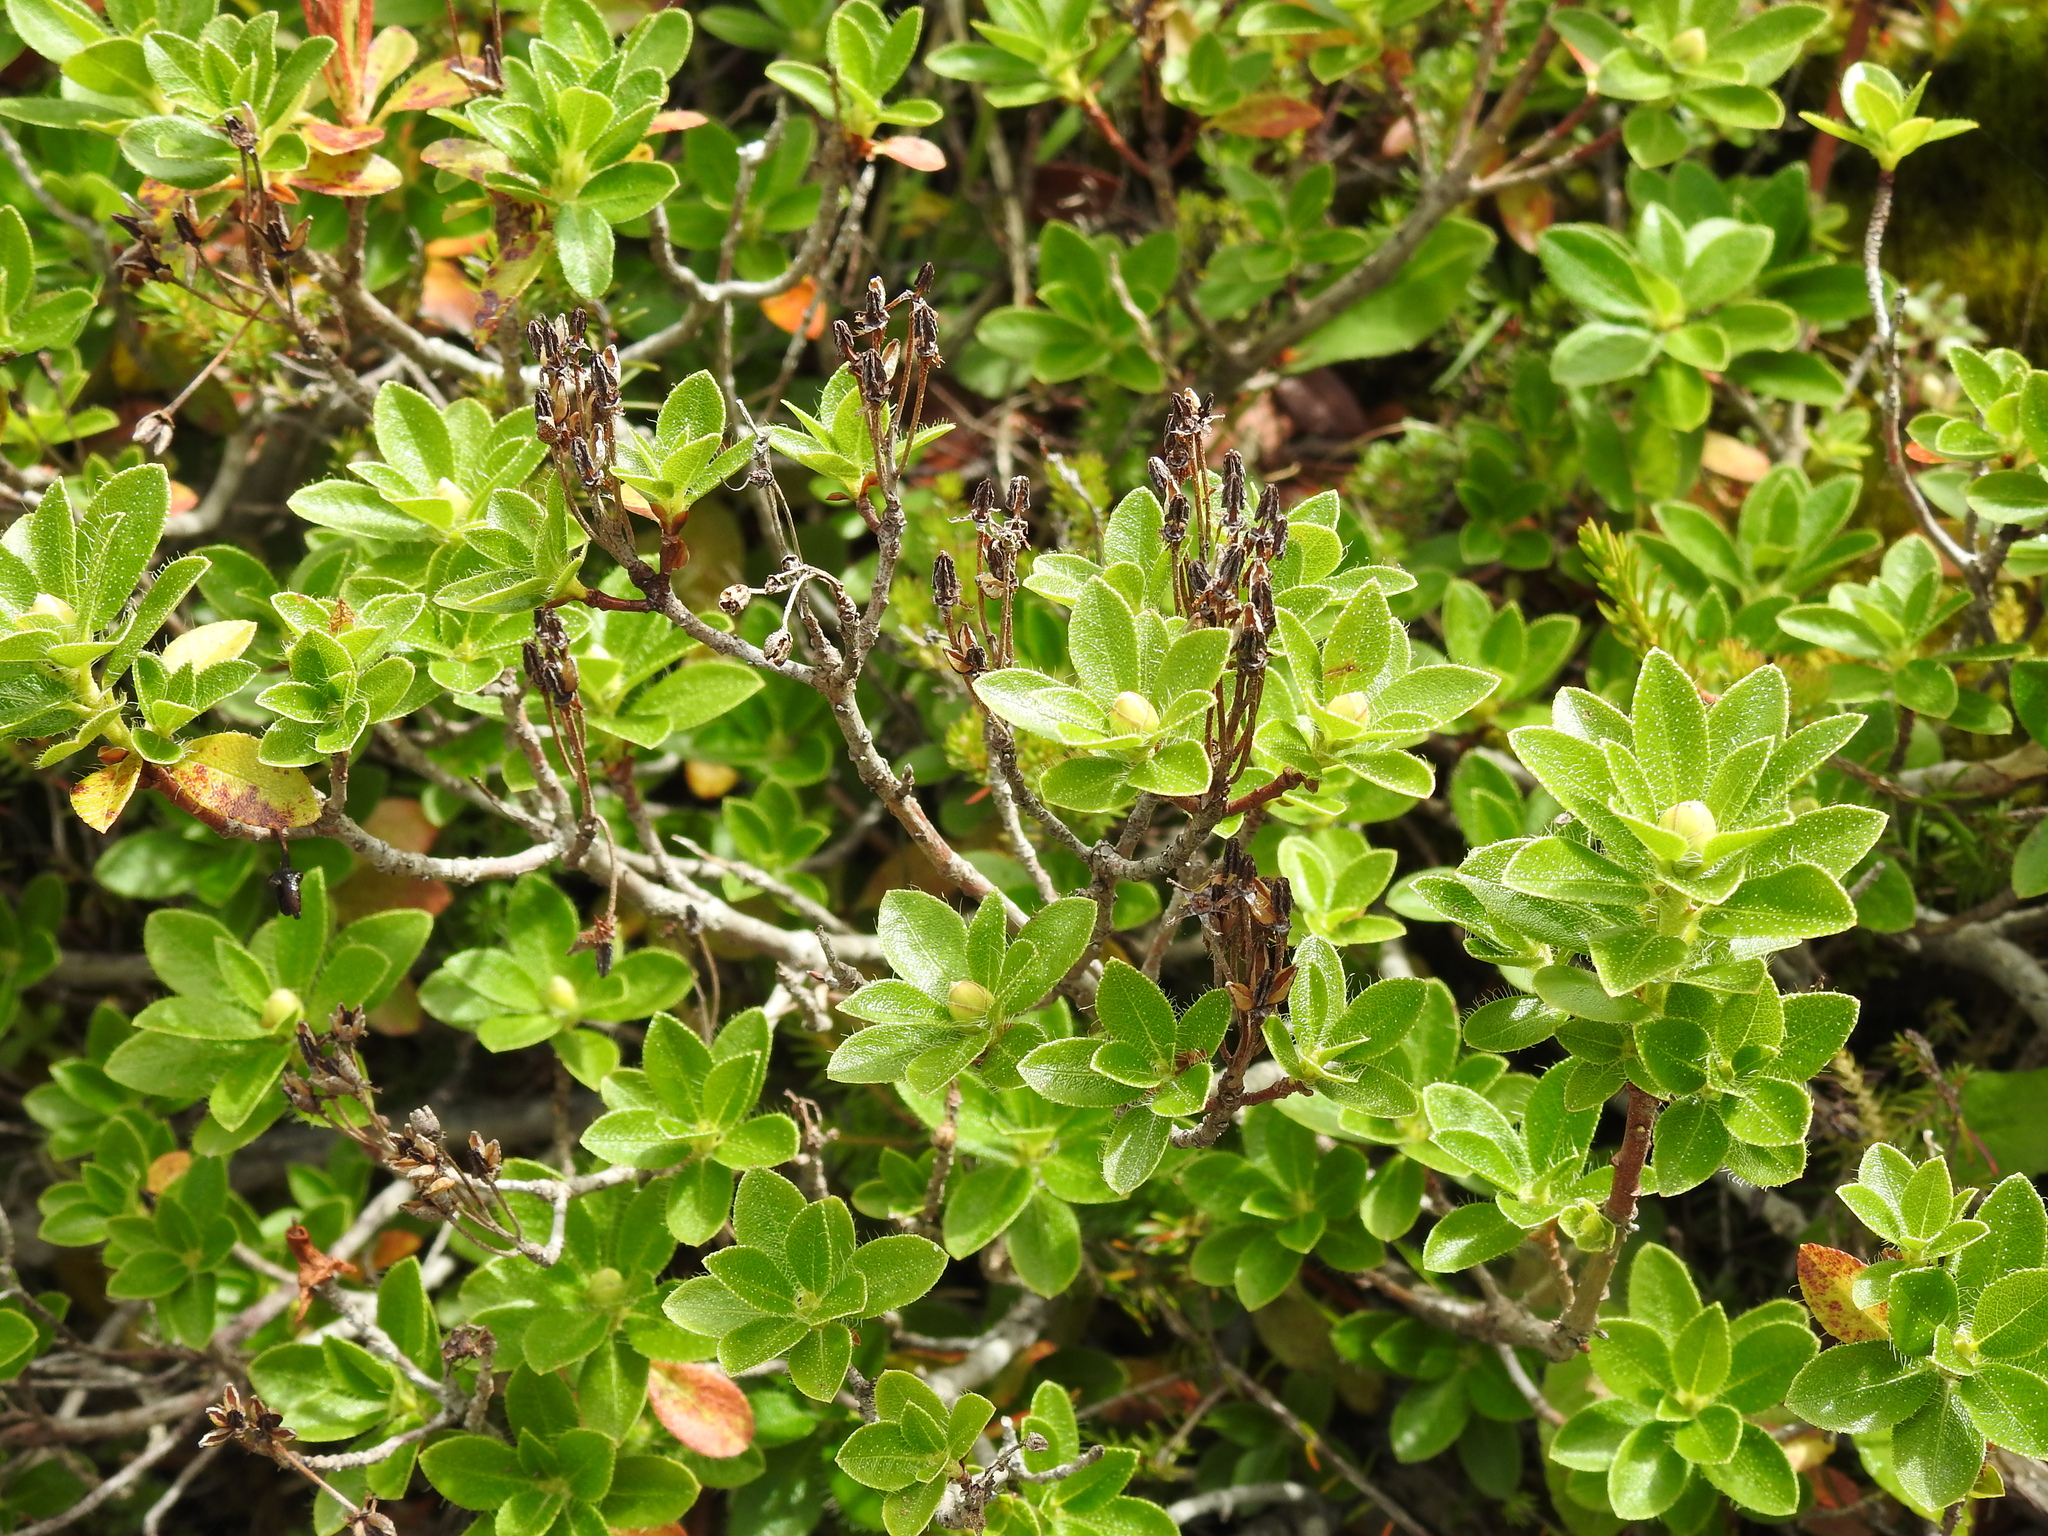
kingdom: Plantae
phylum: Tracheophyta
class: Magnoliopsida
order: Ericales
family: Ericaceae
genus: Rhododendron
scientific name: Rhododendron hirsutum
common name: Hairy alpenrose
